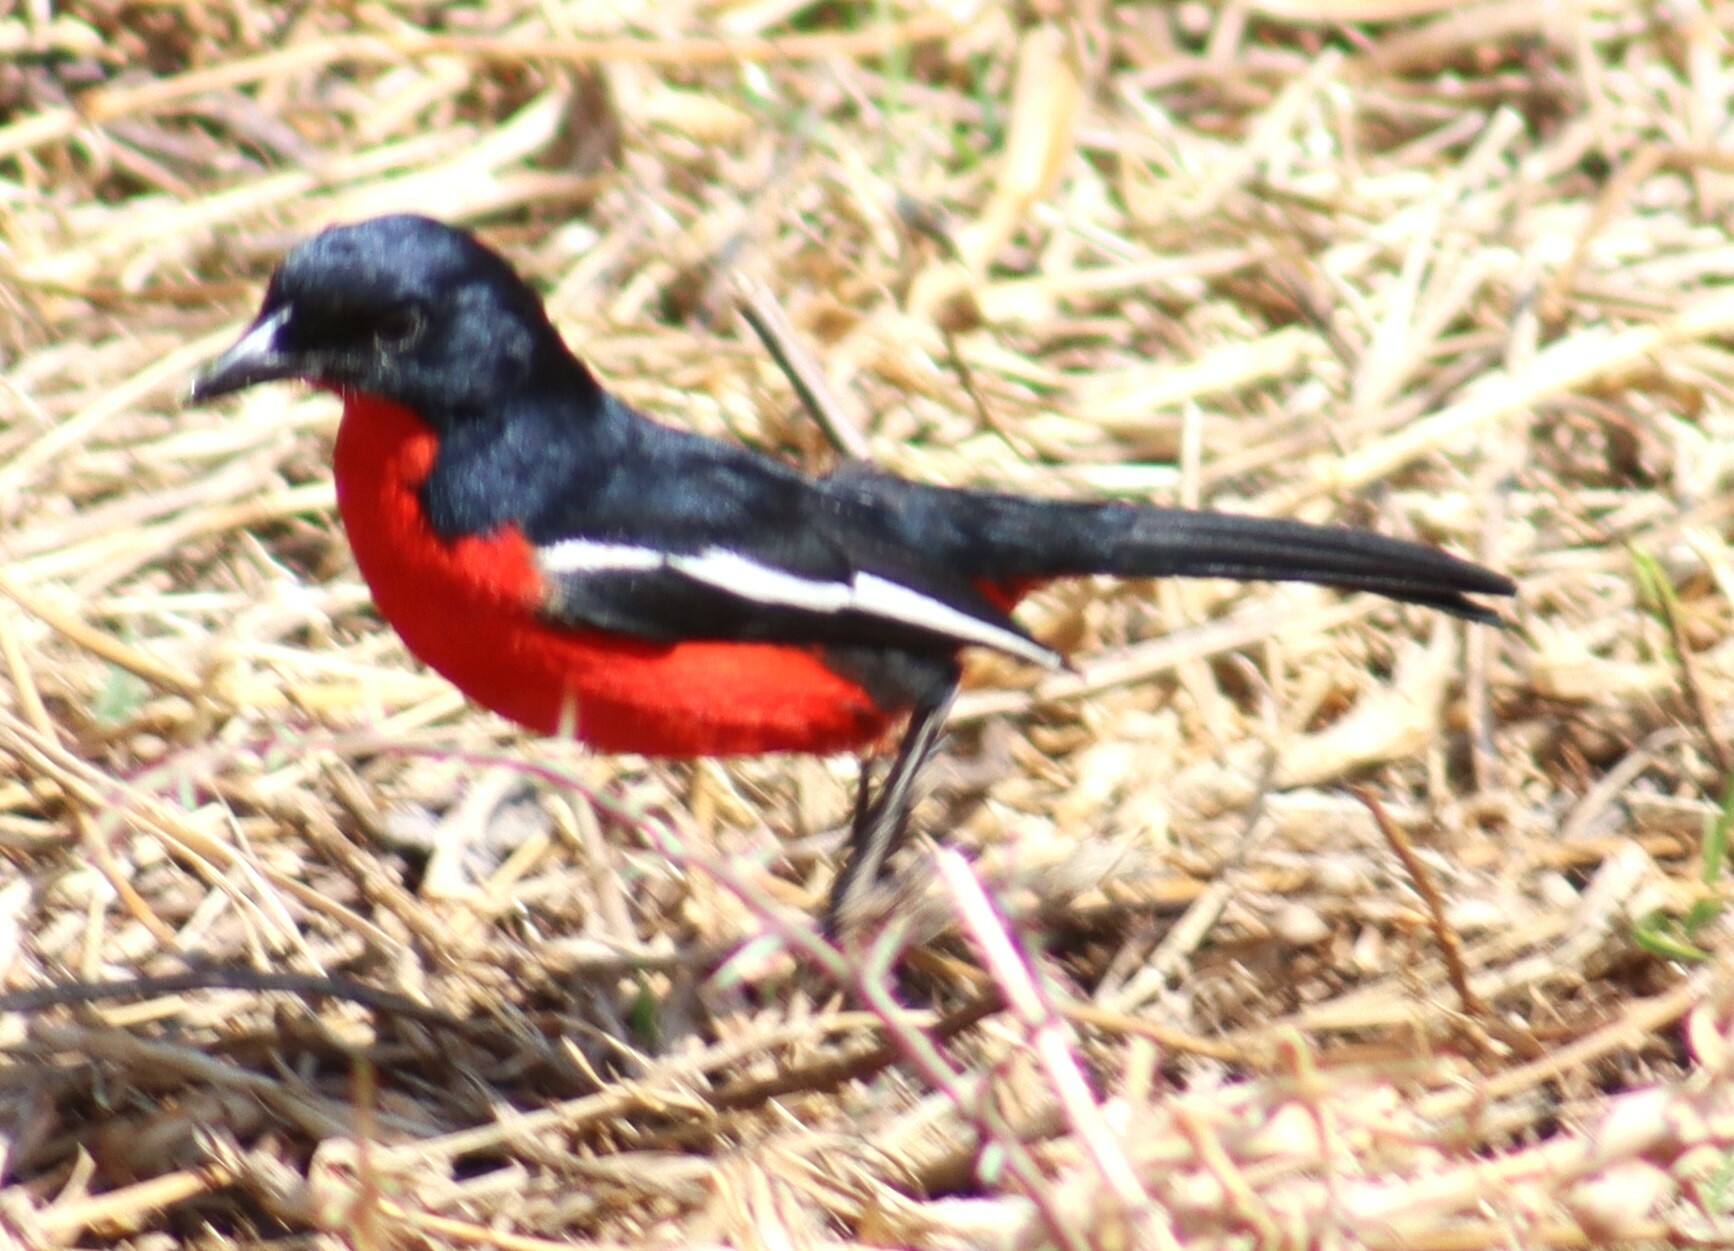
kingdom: Animalia
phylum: Chordata
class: Aves
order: Passeriformes
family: Malaconotidae
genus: Laniarius
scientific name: Laniarius atrococcineus
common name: Crimson-breasted shrike
